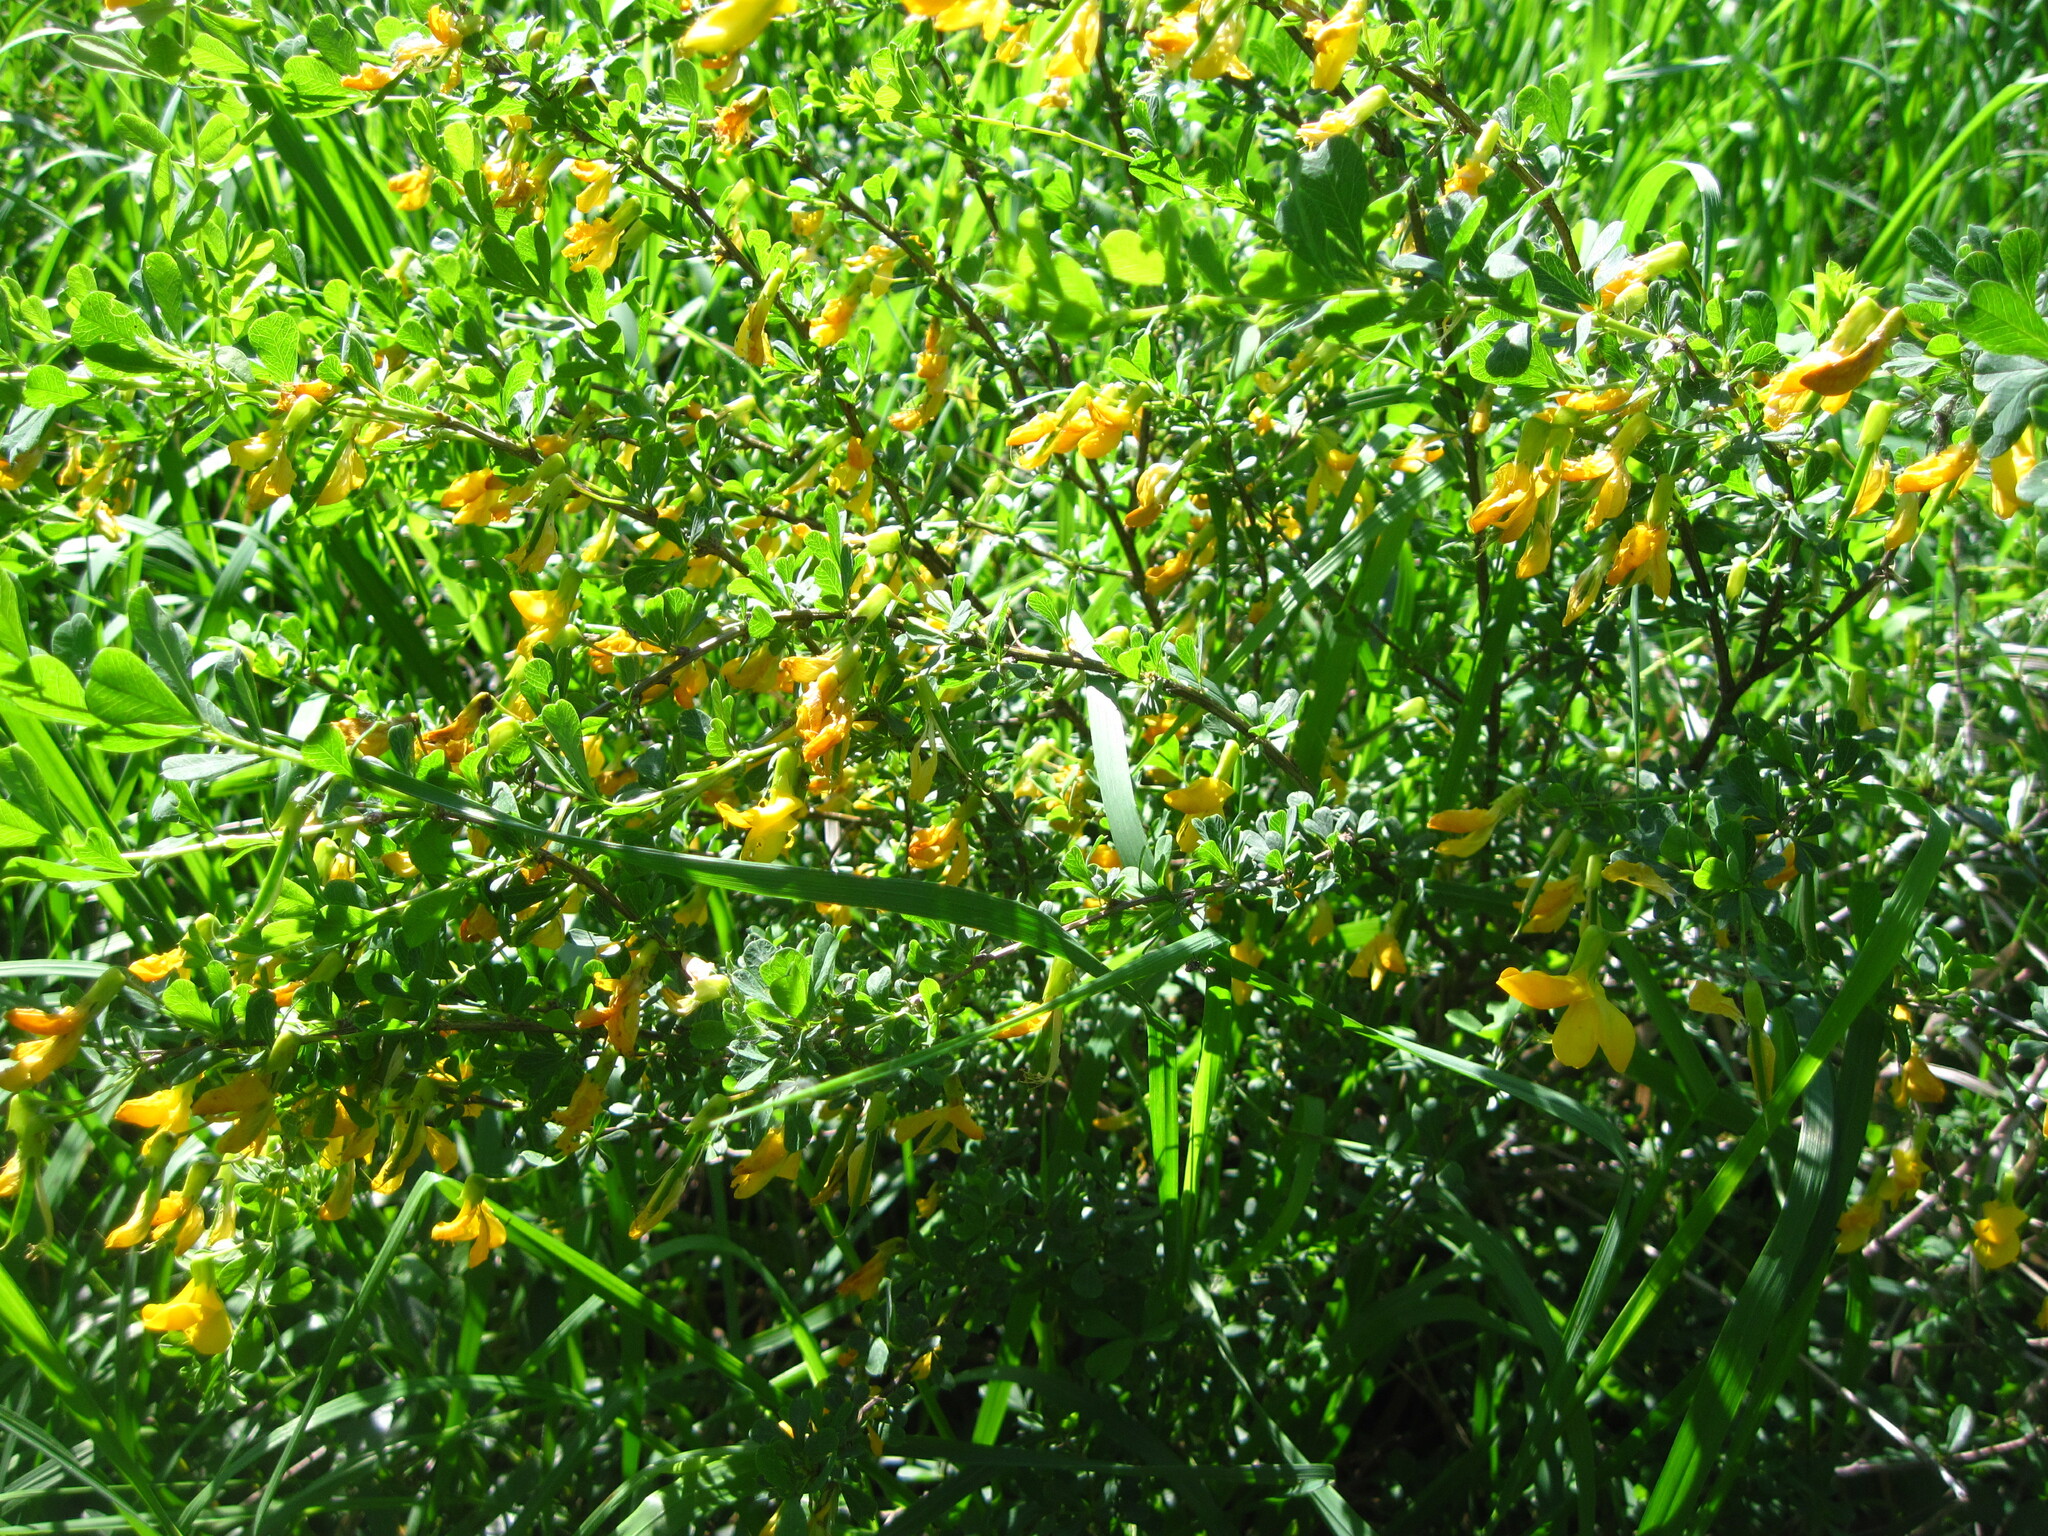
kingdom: Plantae
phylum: Tracheophyta
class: Magnoliopsida
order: Fabales
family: Fabaceae
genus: Caragana
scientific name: Caragana frutex
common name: Russian peashrub
